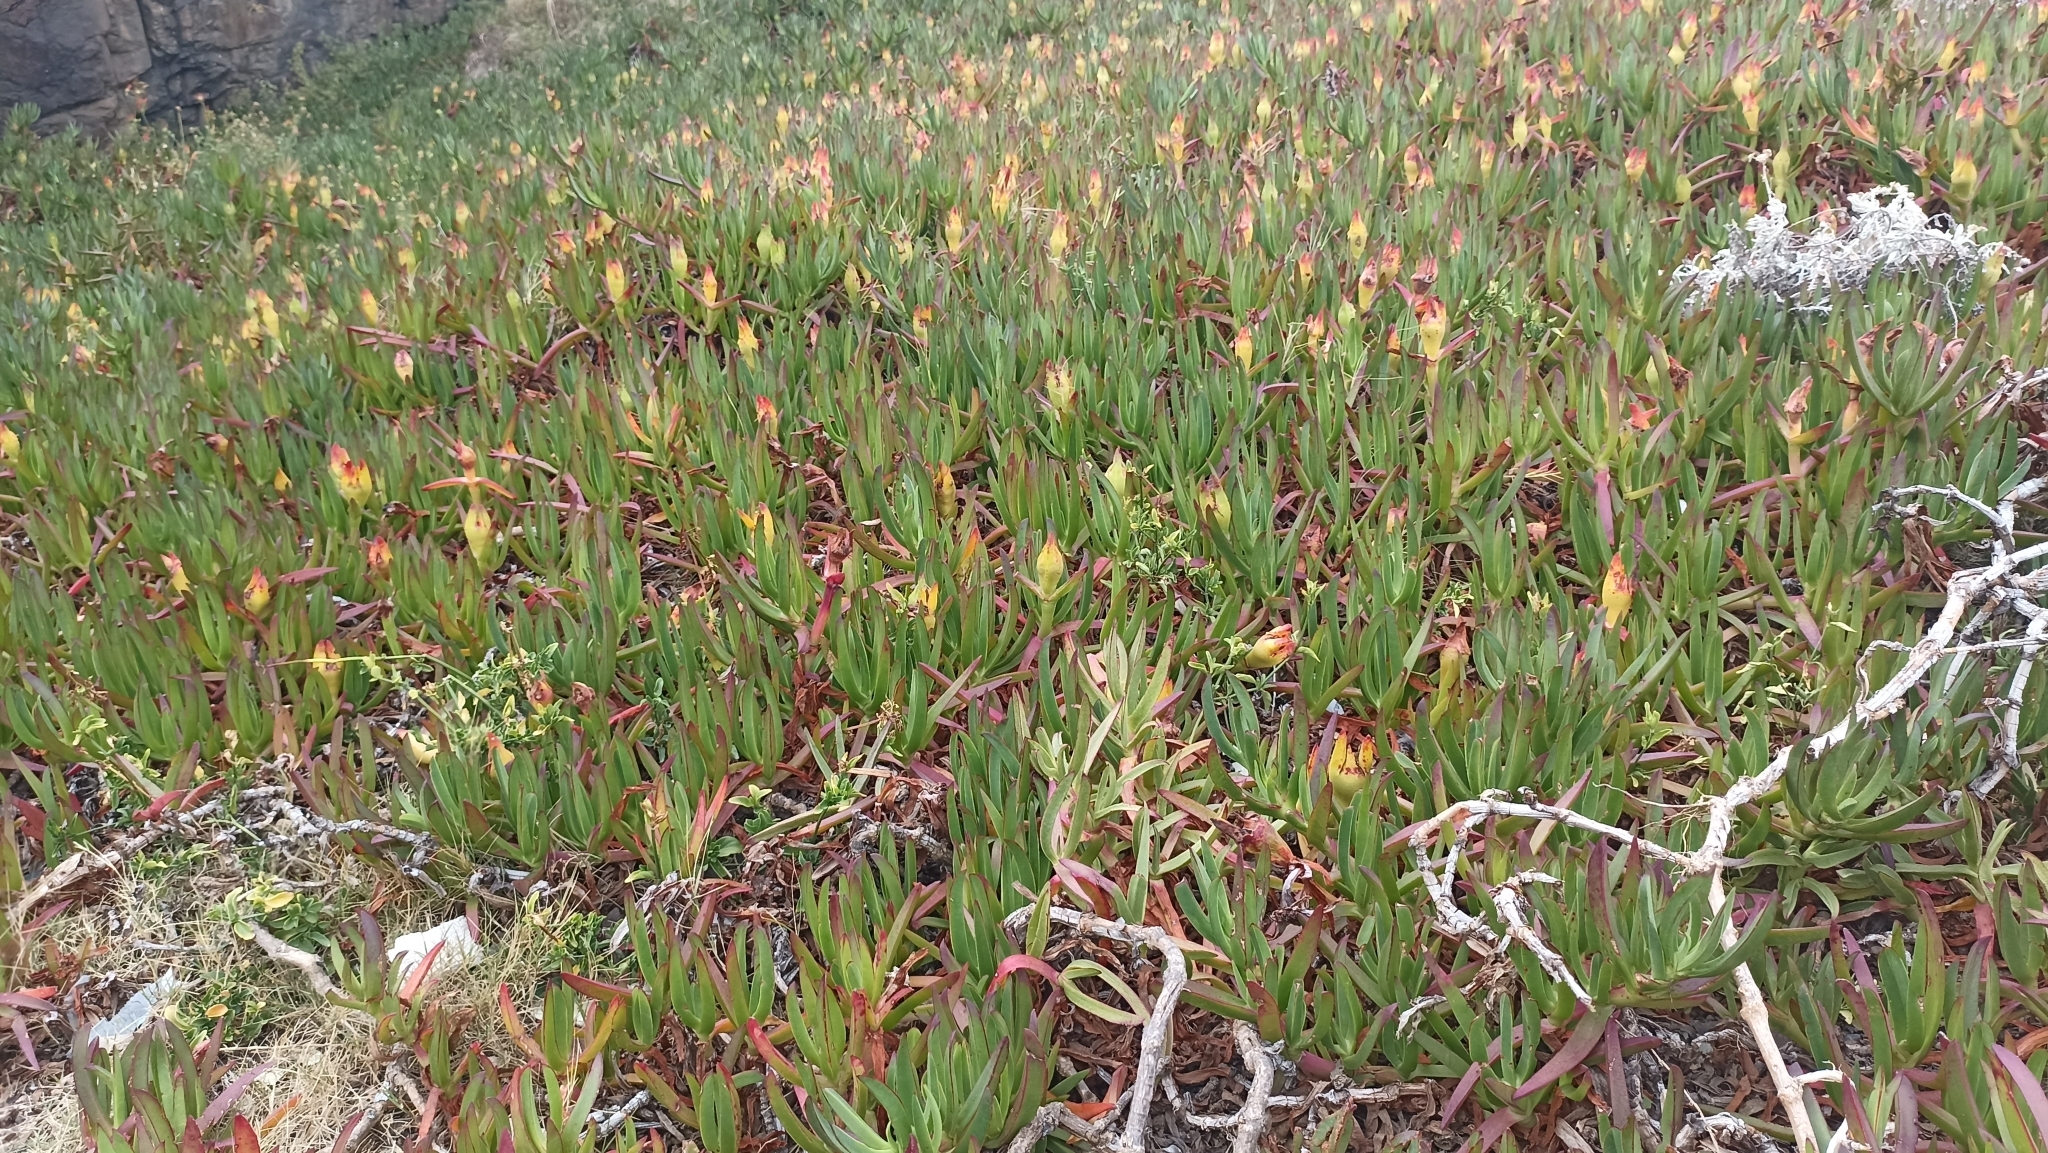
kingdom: Plantae
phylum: Tracheophyta
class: Magnoliopsida
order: Caryophyllales
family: Aizoaceae
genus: Carpobrotus
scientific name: Carpobrotus edulis
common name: Hottentot-fig
